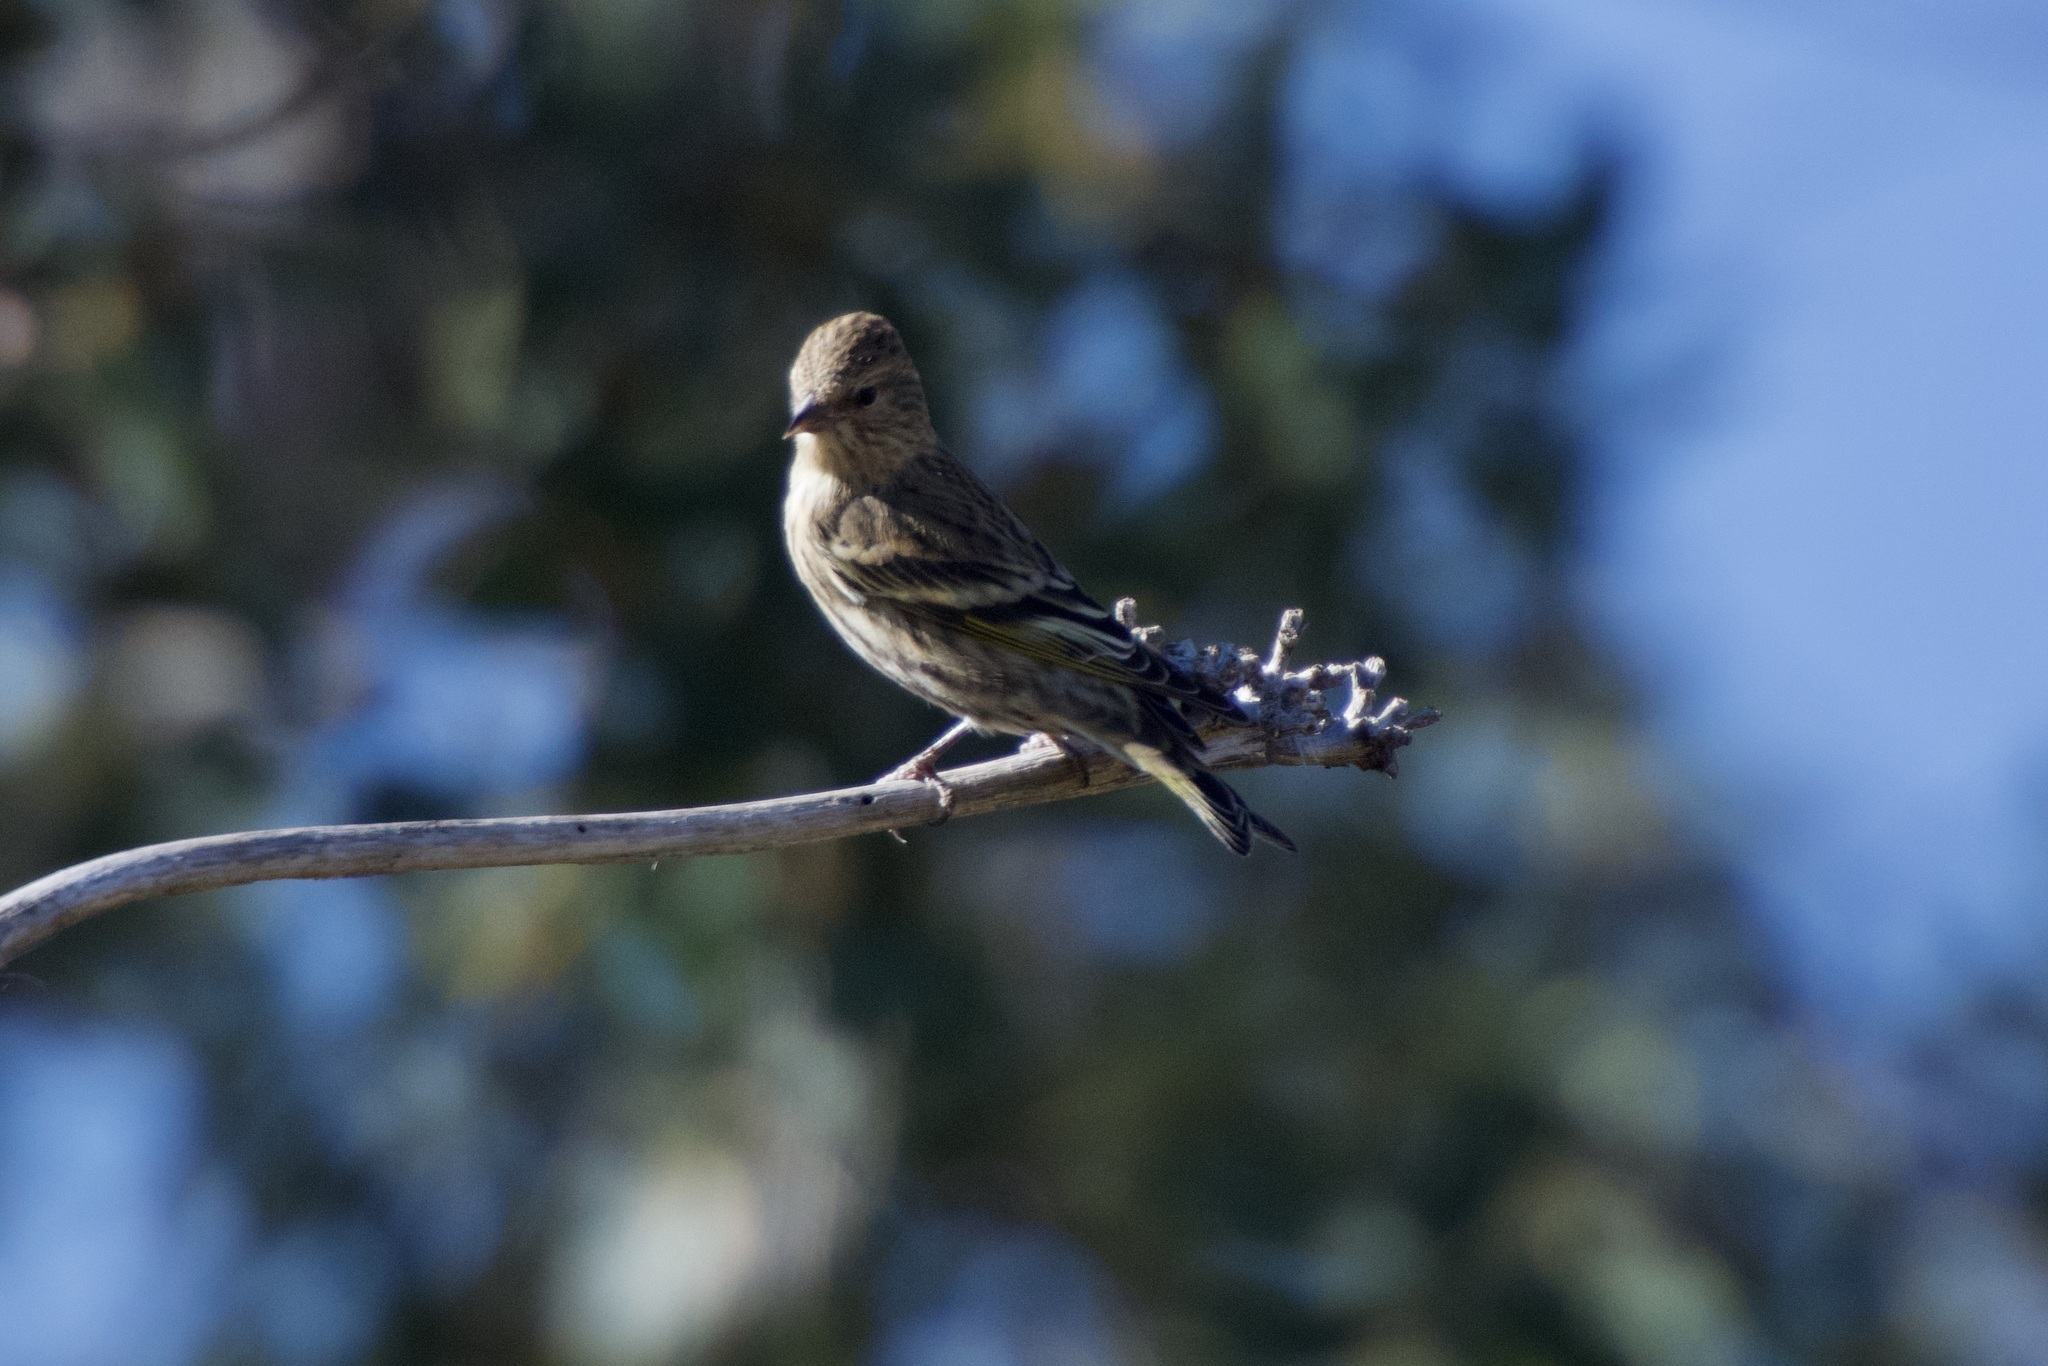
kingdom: Animalia
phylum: Chordata
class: Aves
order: Passeriformes
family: Fringillidae
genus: Spinus
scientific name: Spinus pinus
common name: Pine siskin
